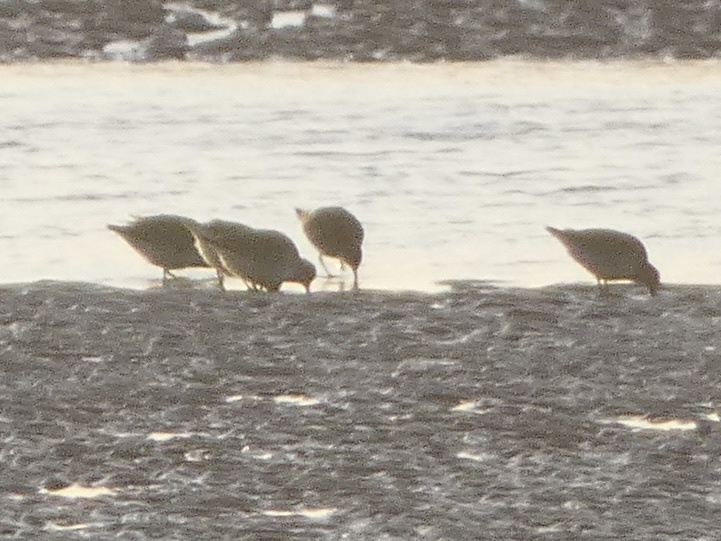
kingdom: Animalia
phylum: Chordata
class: Aves
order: Charadriiformes
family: Scolopacidae
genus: Calidris
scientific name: Calidris canutus
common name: Red knot
